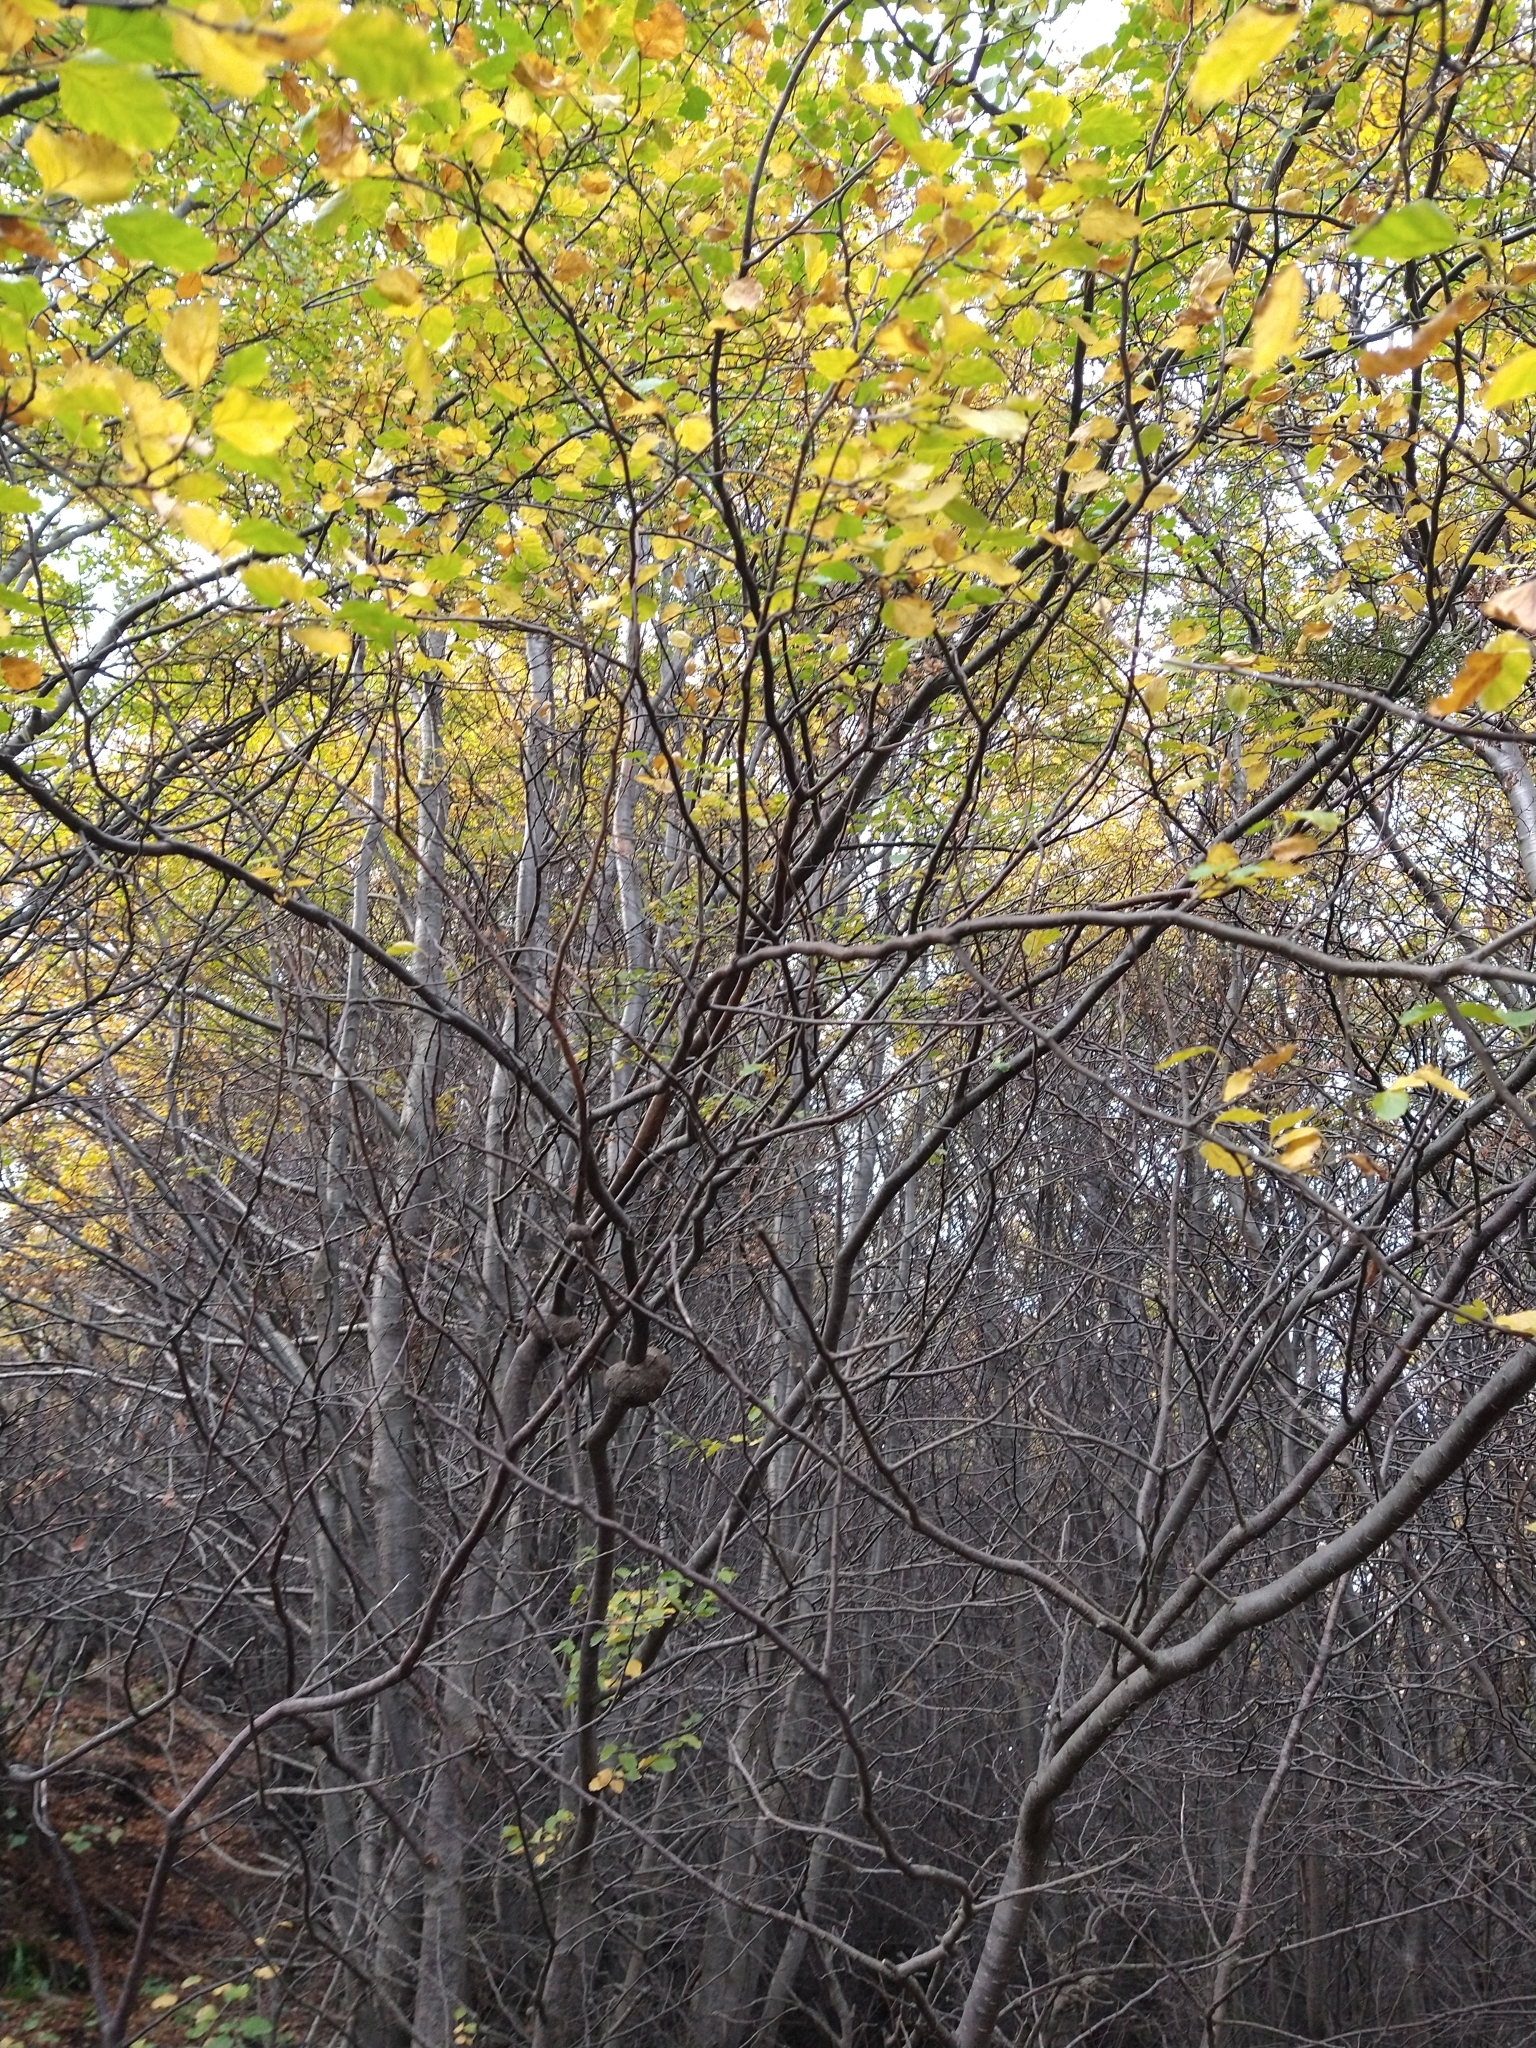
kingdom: Plantae
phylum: Tracheophyta
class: Magnoliopsida
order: Fagales
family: Nothofagaceae
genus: Nothofagus
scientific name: Nothofagus antarctica
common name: Antarctic beech
